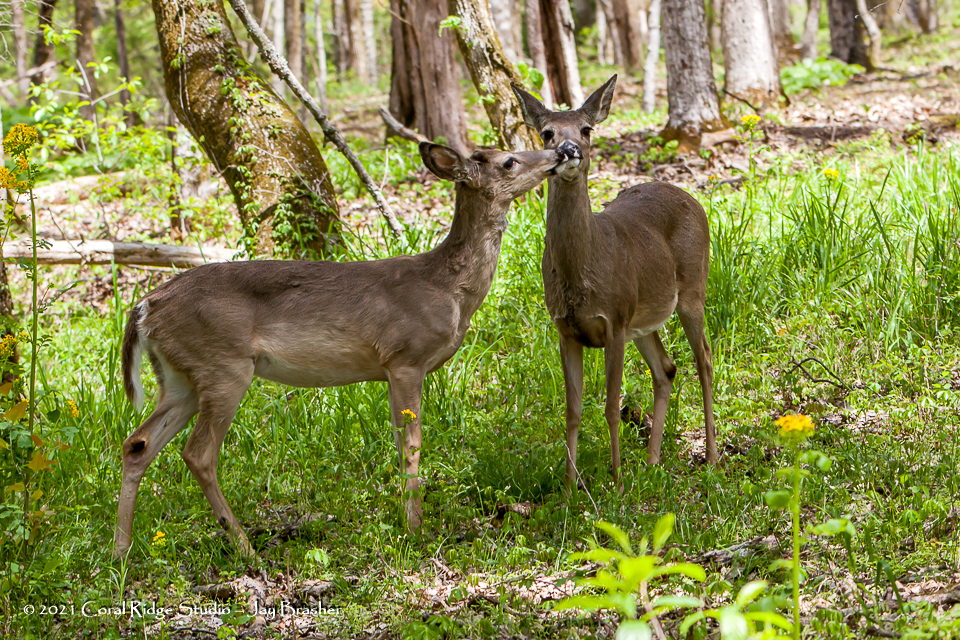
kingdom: Animalia
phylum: Chordata
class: Mammalia
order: Artiodactyla
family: Cervidae
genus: Odocoileus
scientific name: Odocoileus virginianus
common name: White-tailed deer
